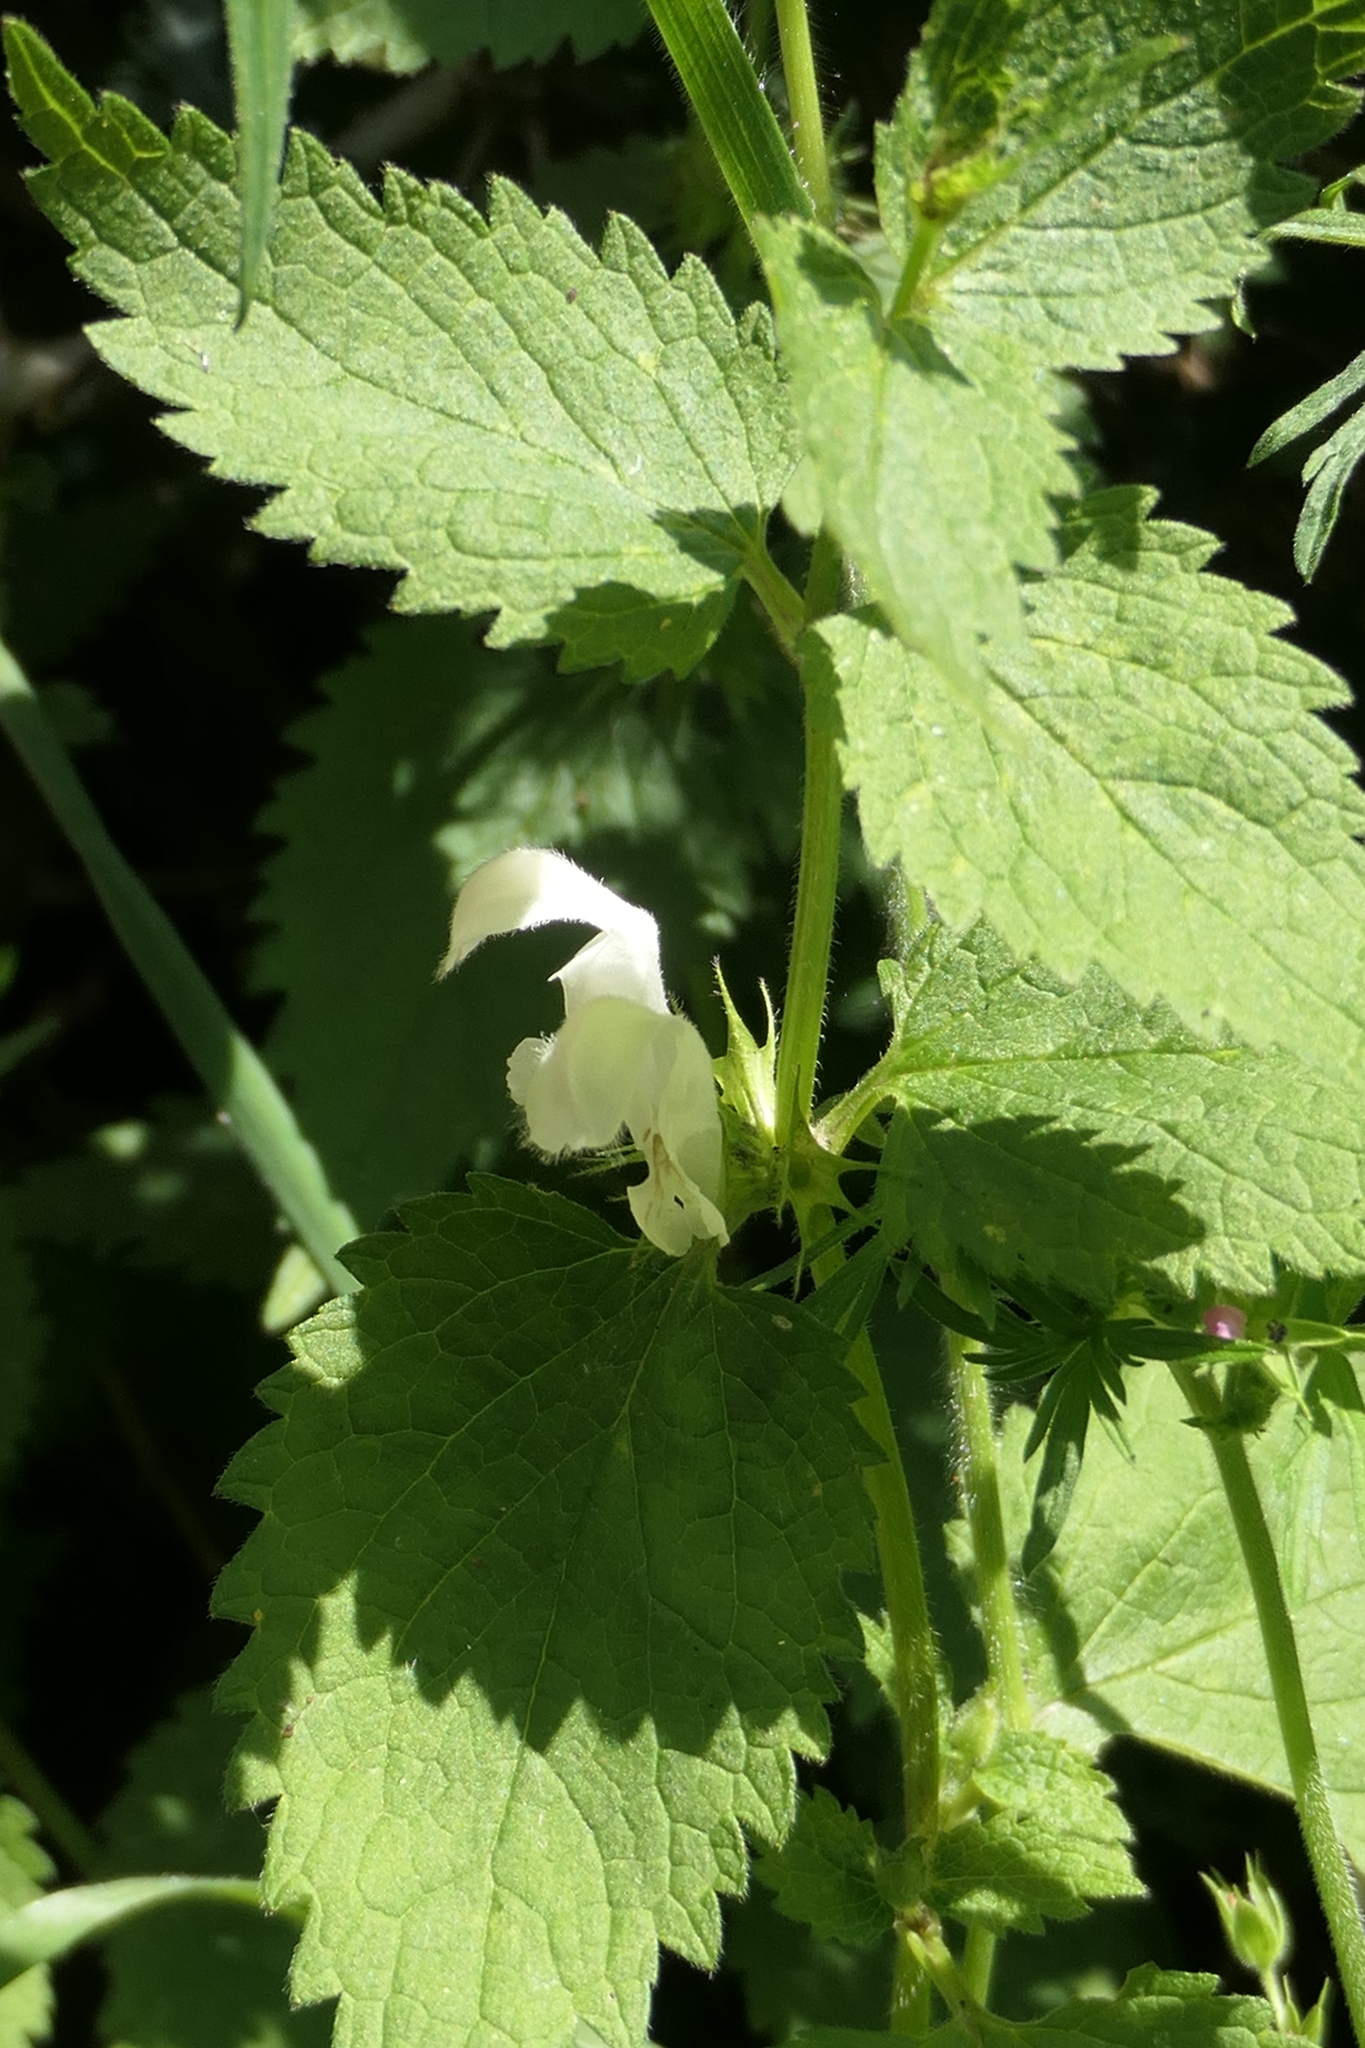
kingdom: Plantae
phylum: Tracheophyta
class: Magnoliopsida
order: Lamiales
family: Lamiaceae
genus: Lamium
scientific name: Lamium album
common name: White dead-nettle
